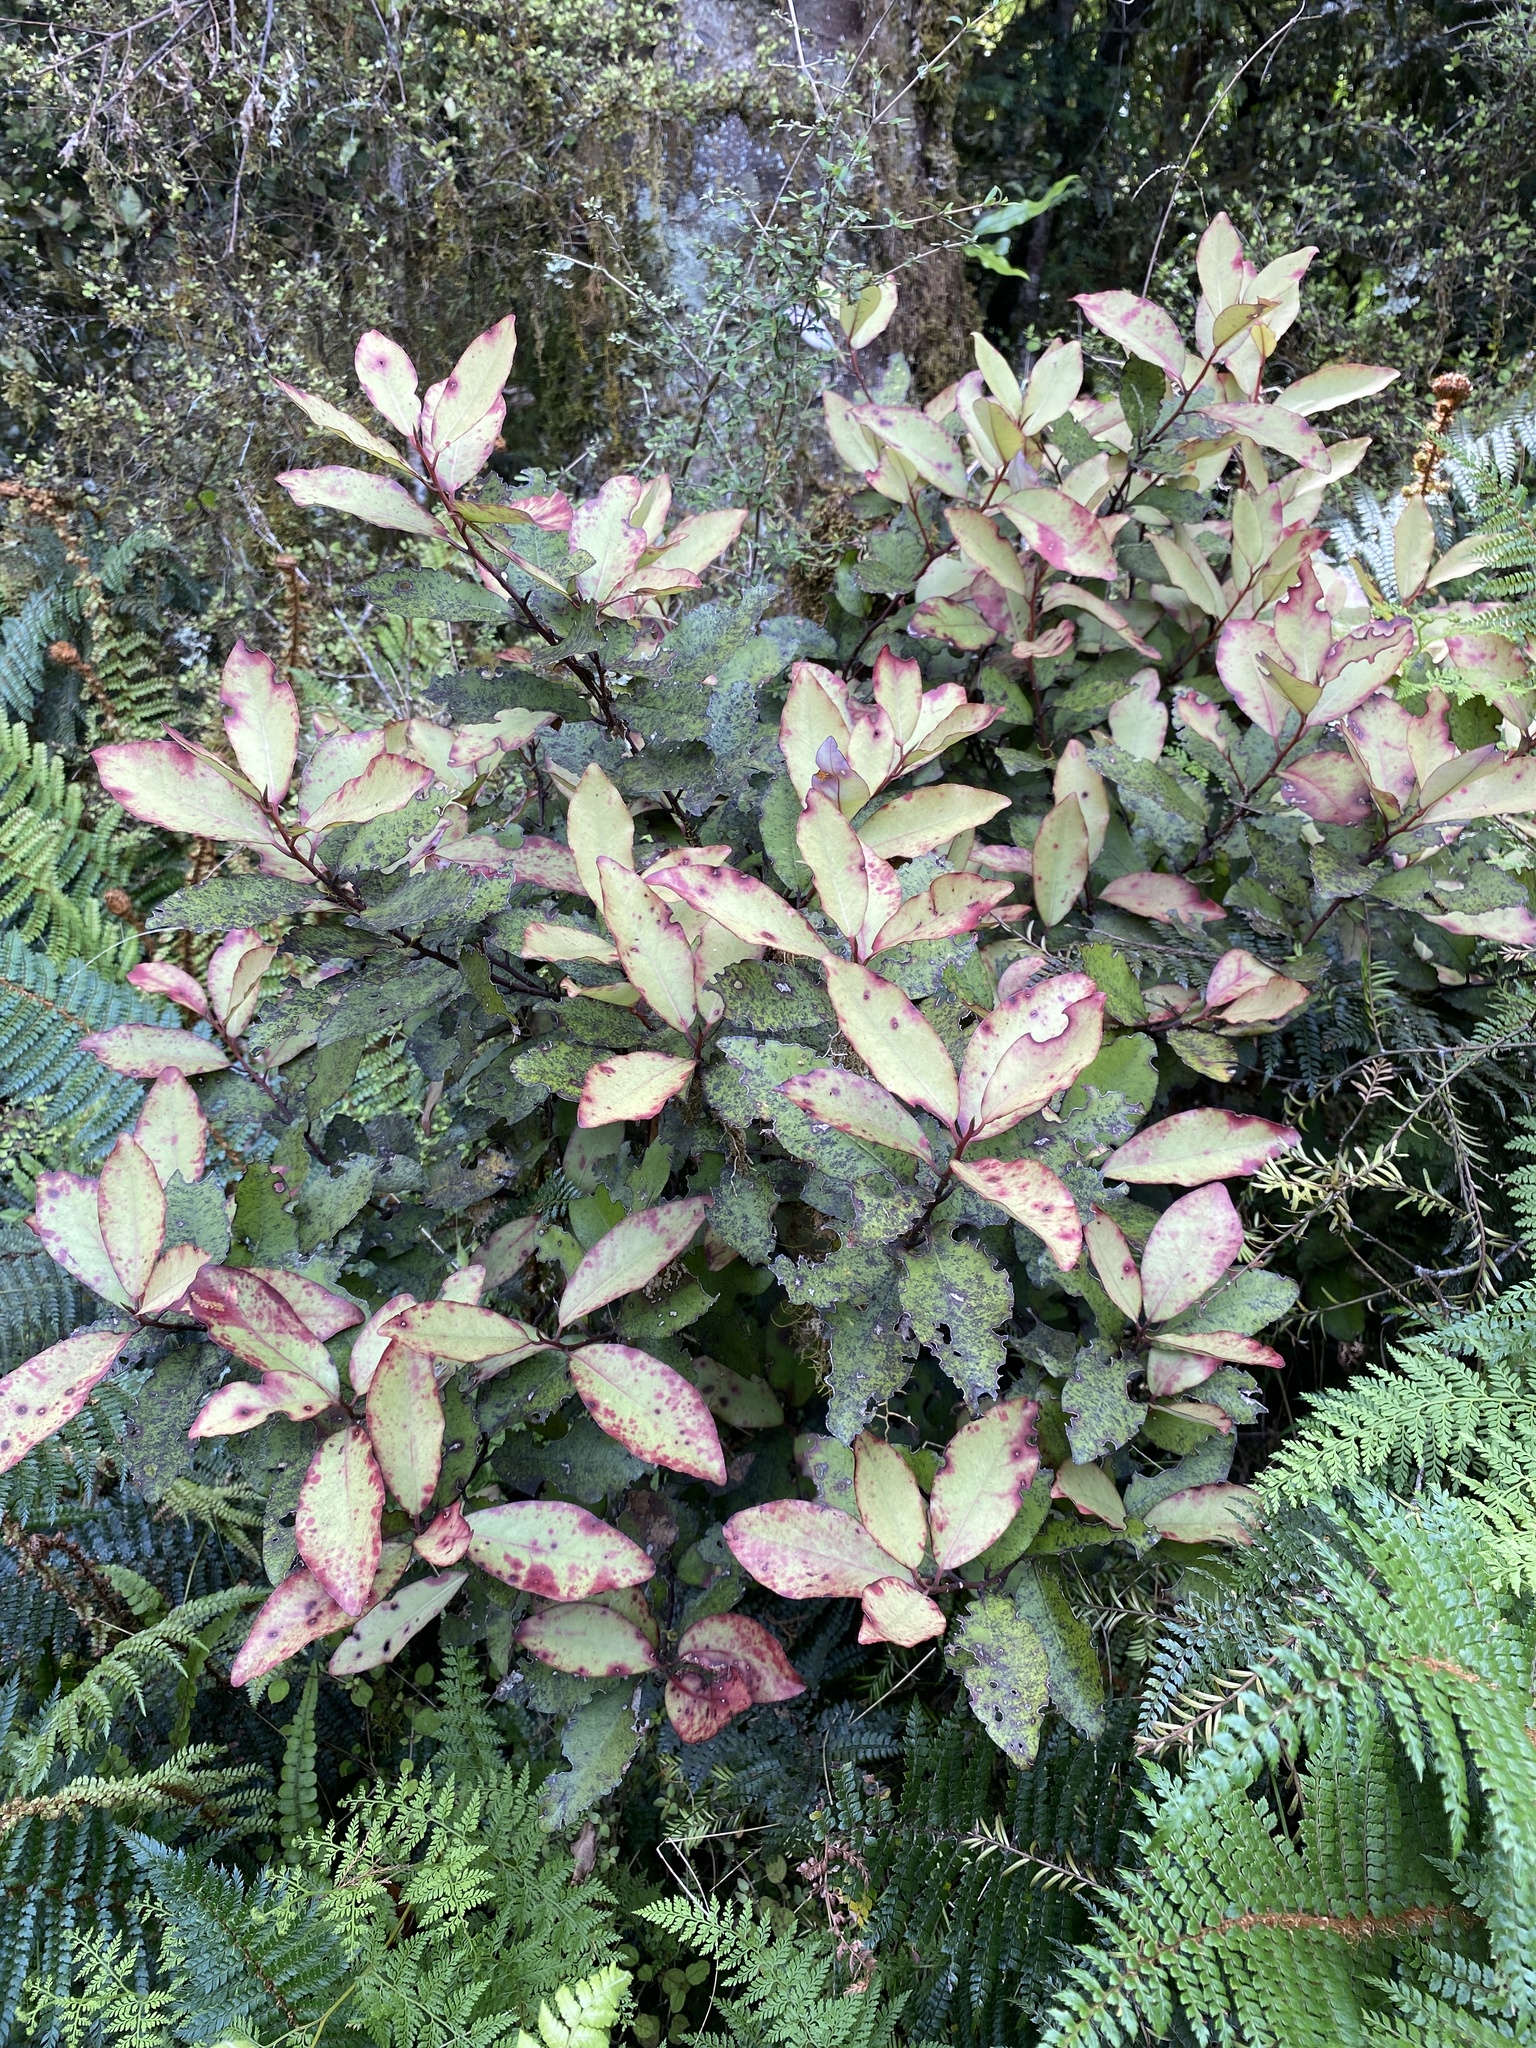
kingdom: Plantae
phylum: Tracheophyta
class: Magnoliopsida
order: Canellales
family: Winteraceae
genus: Pseudowintera
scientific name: Pseudowintera colorata
